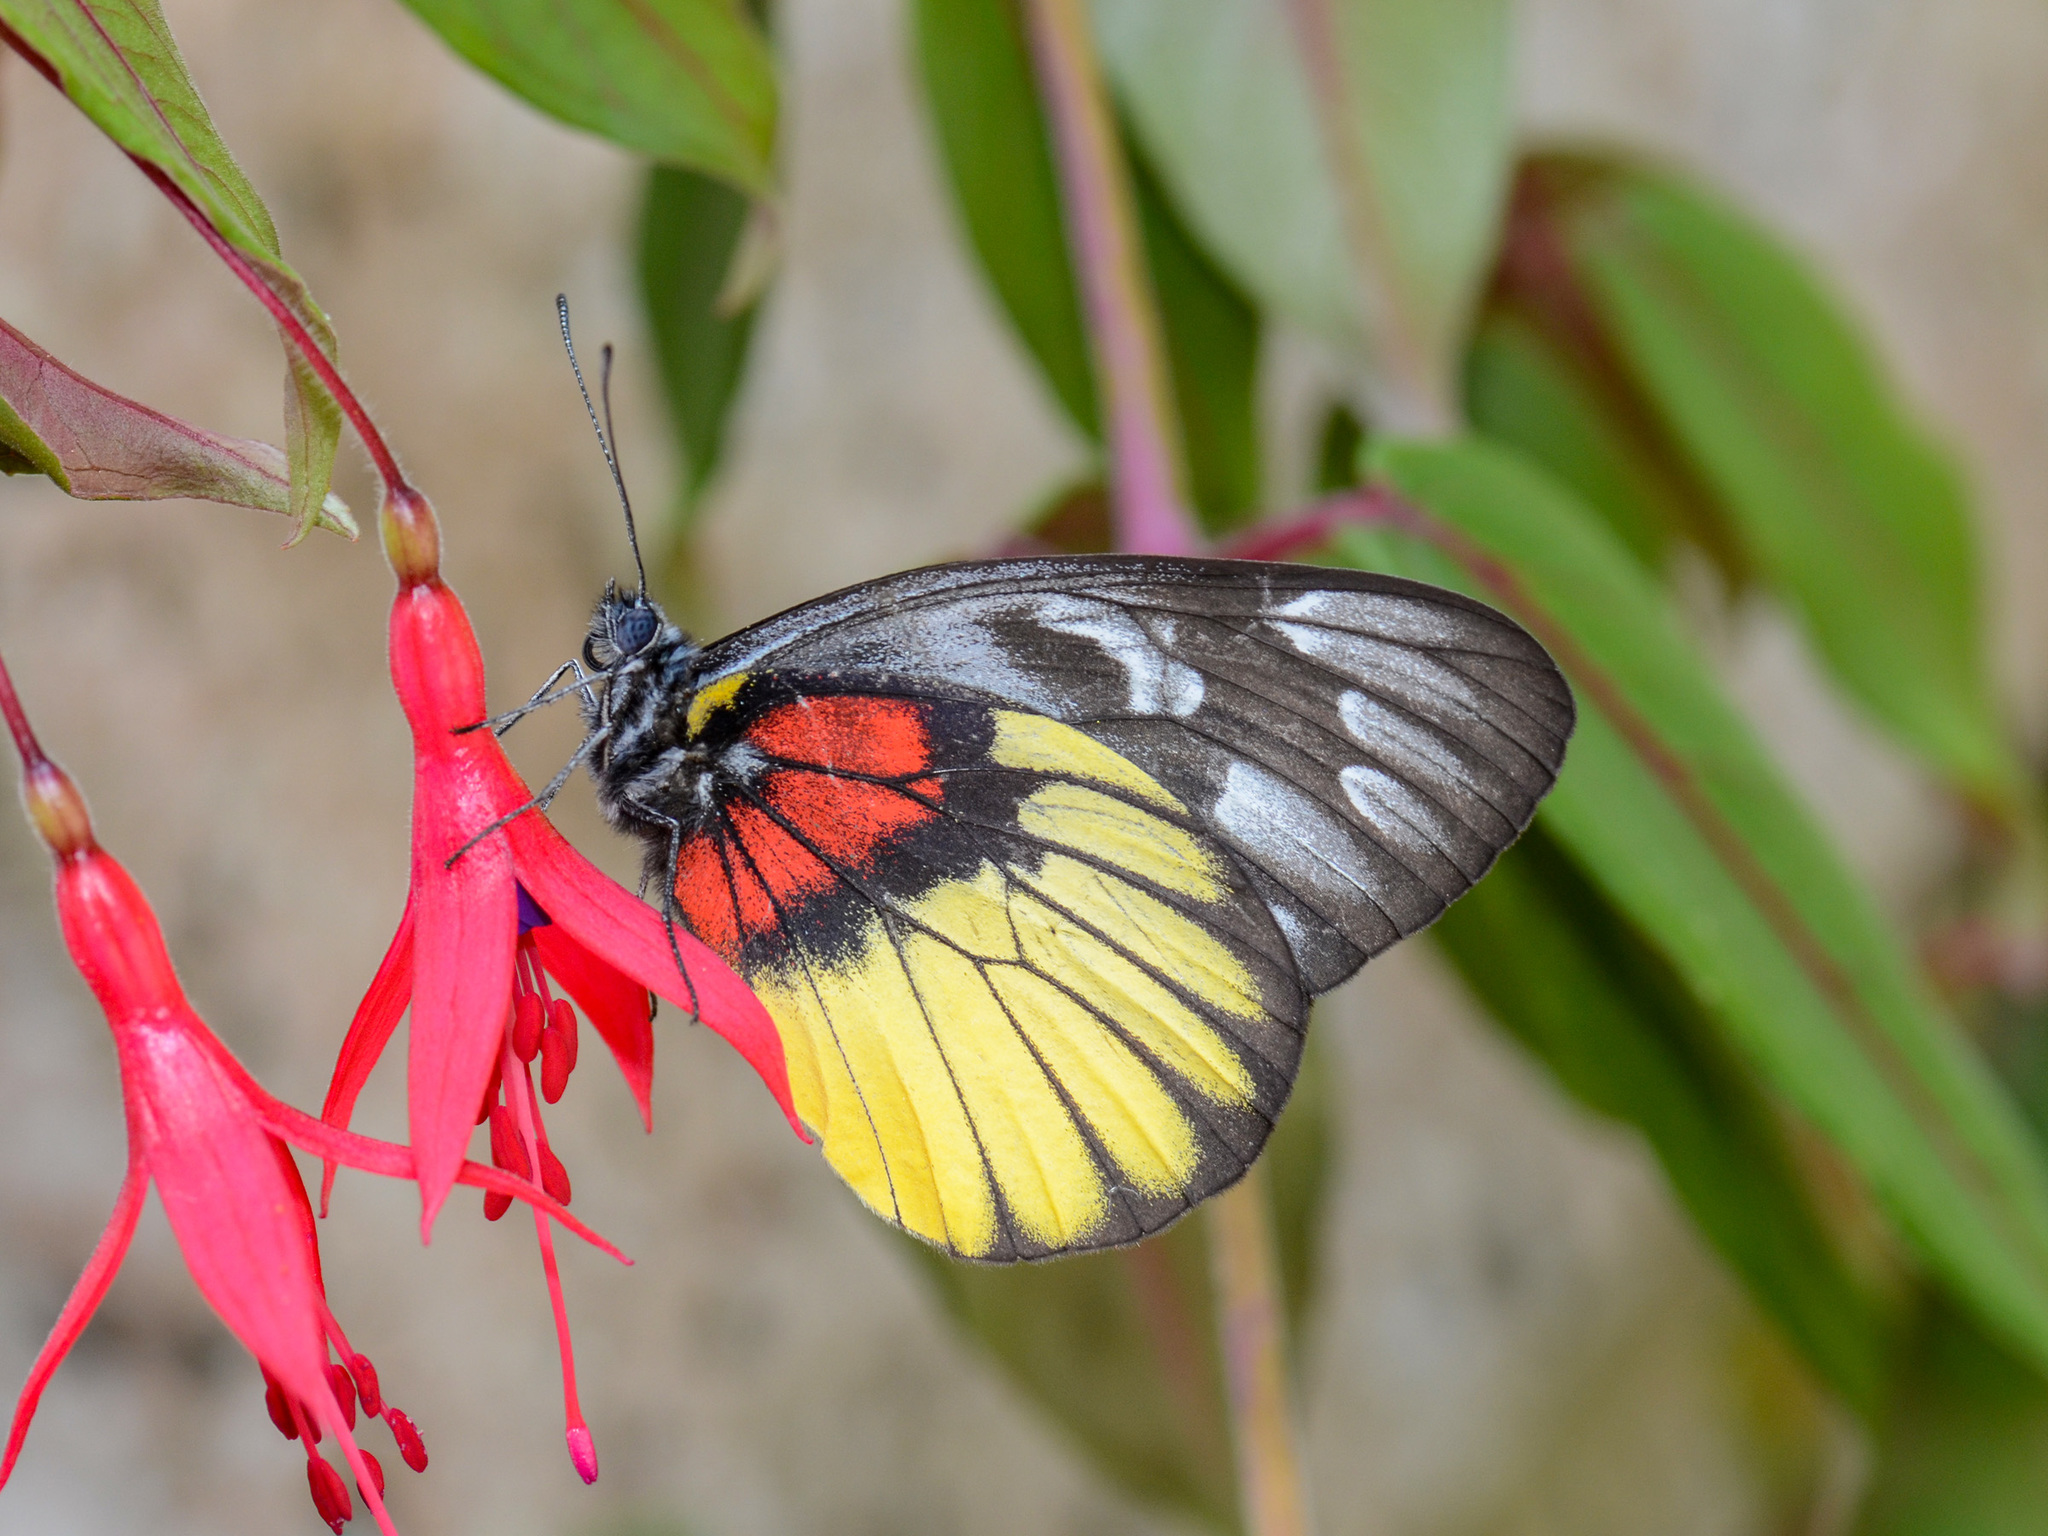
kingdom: Animalia
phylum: Arthropoda
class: Insecta
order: Lepidoptera
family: Pieridae
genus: Delias
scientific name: Delias ninus
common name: Malayan jezebel
